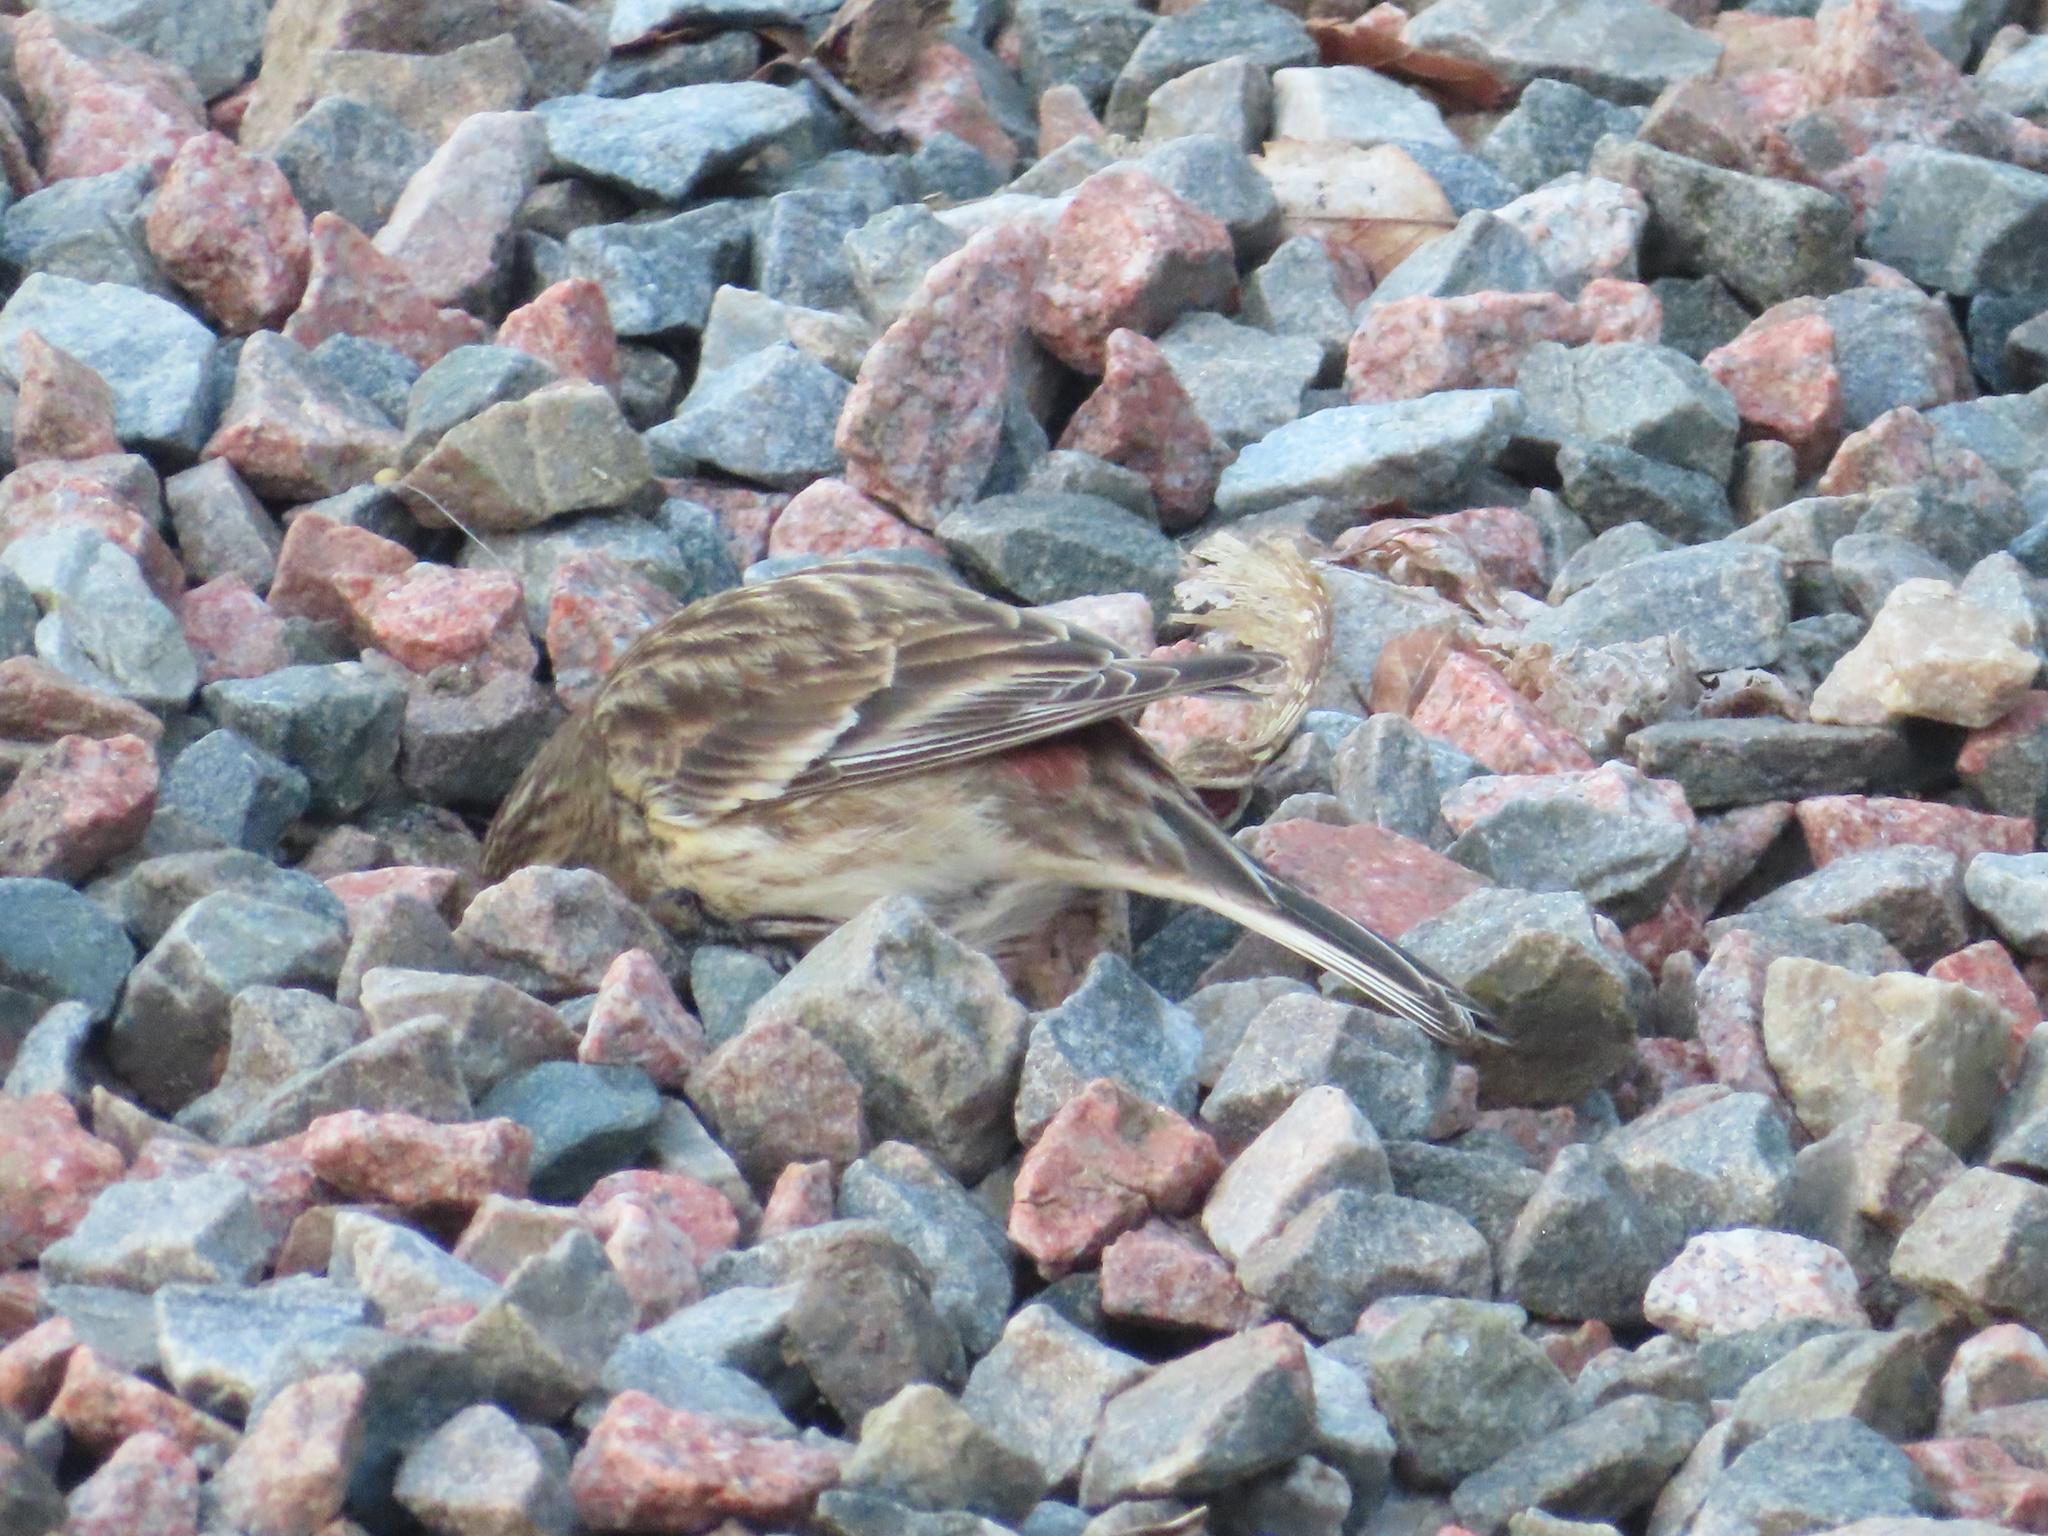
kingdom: Animalia
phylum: Chordata
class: Aves
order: Passeriformes
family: Fringillidae
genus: Linaria
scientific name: Linaria flavirostris
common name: Twite
